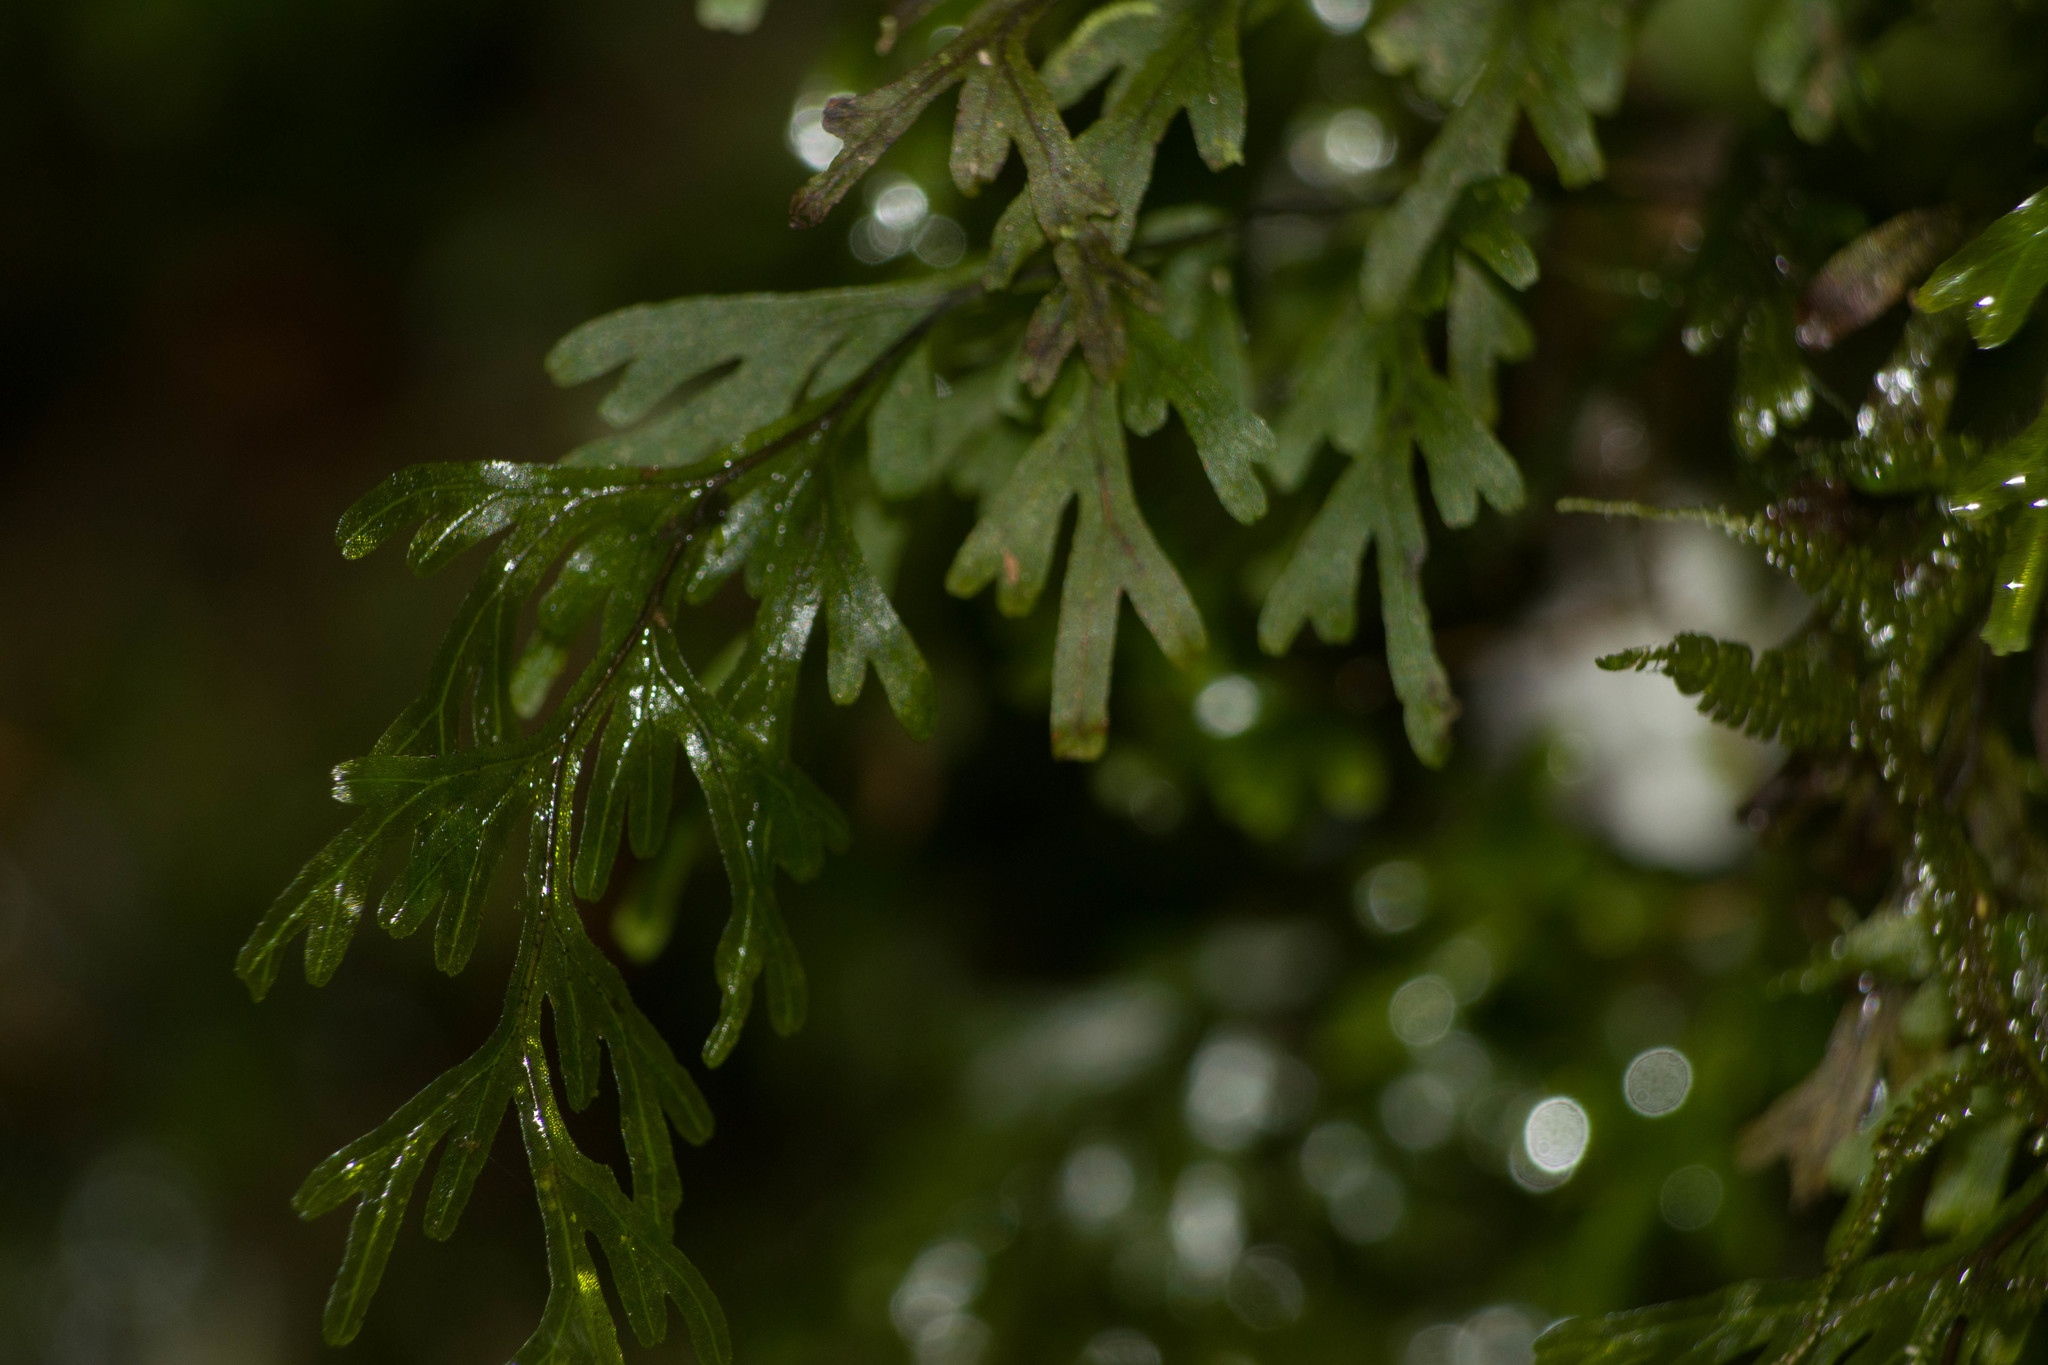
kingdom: Plantae
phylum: Tracheophyta
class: Polypodiopsida
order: Hymenophyllales
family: Hymenophyllaceae
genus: Hymenophyllum
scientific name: Hymenophyllum recurvum
